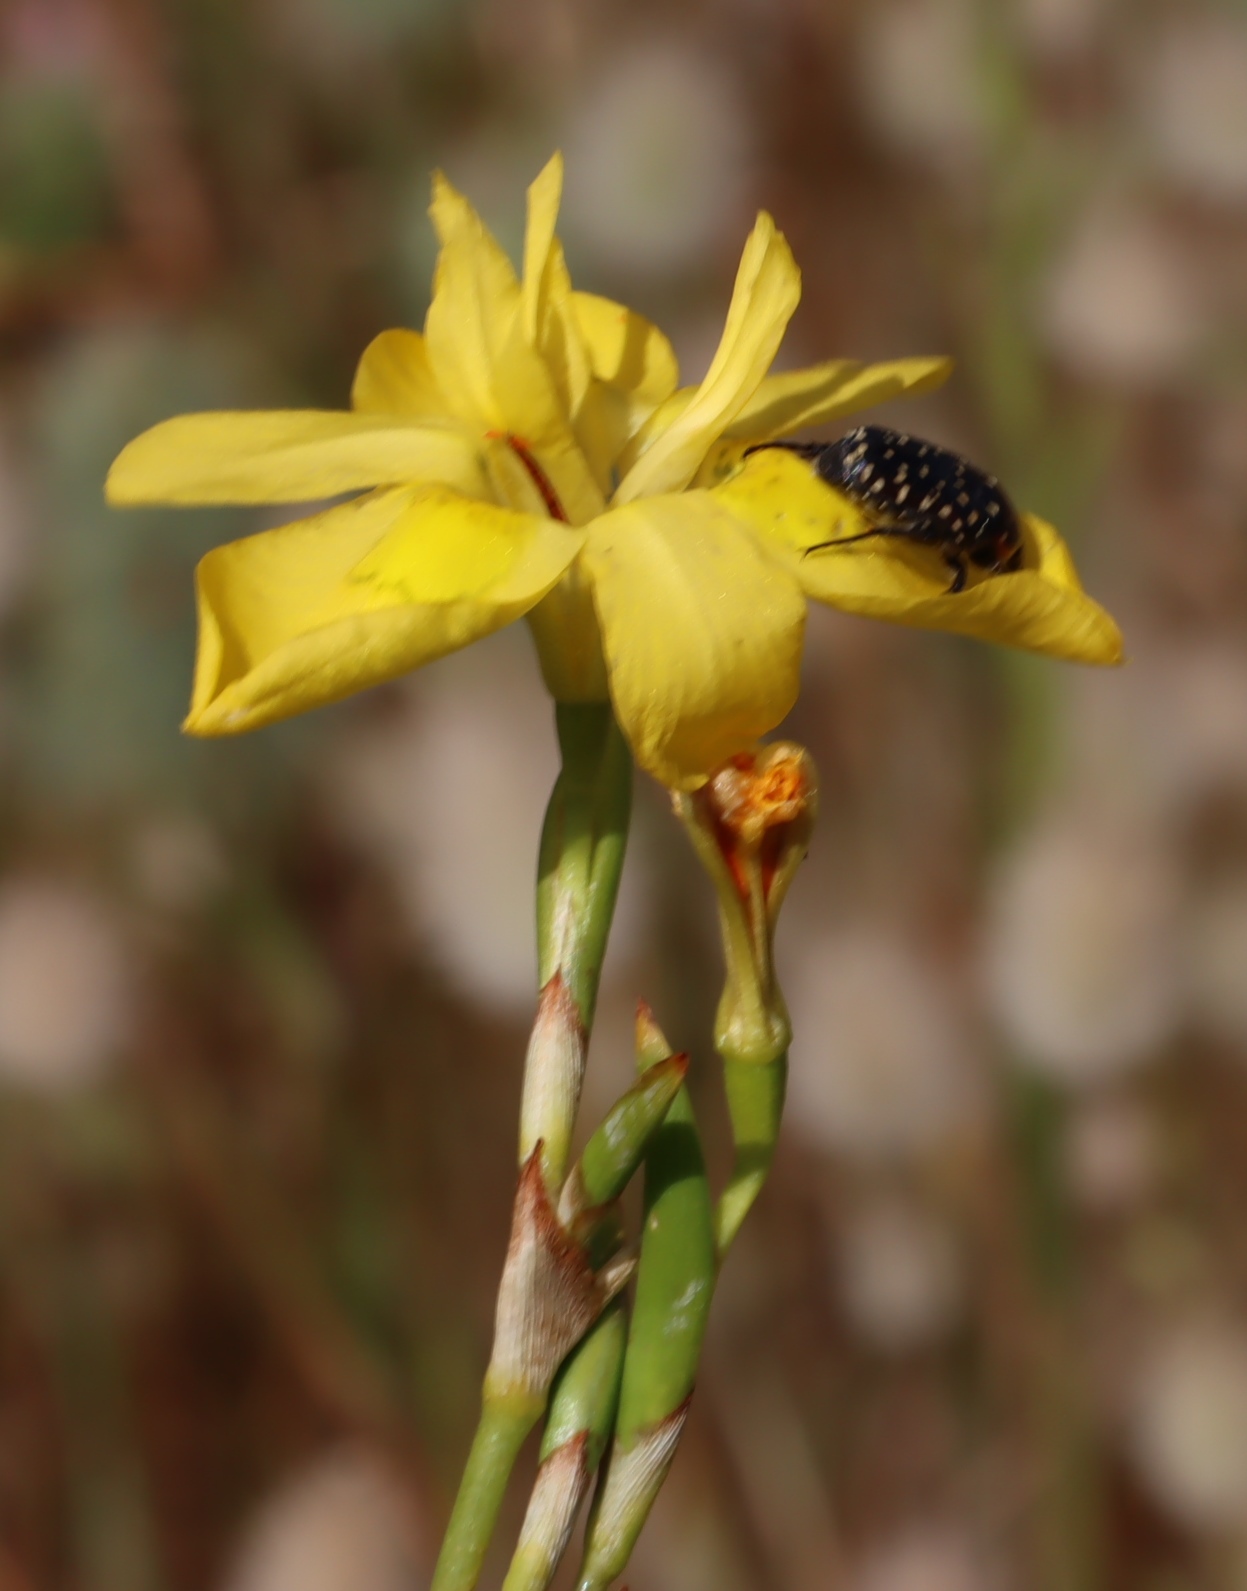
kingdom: Plantae
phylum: Tracheophyta
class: Liliopsida
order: Asparagales
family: Iridaceae
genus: Moraea
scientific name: Moraea ramosissima
